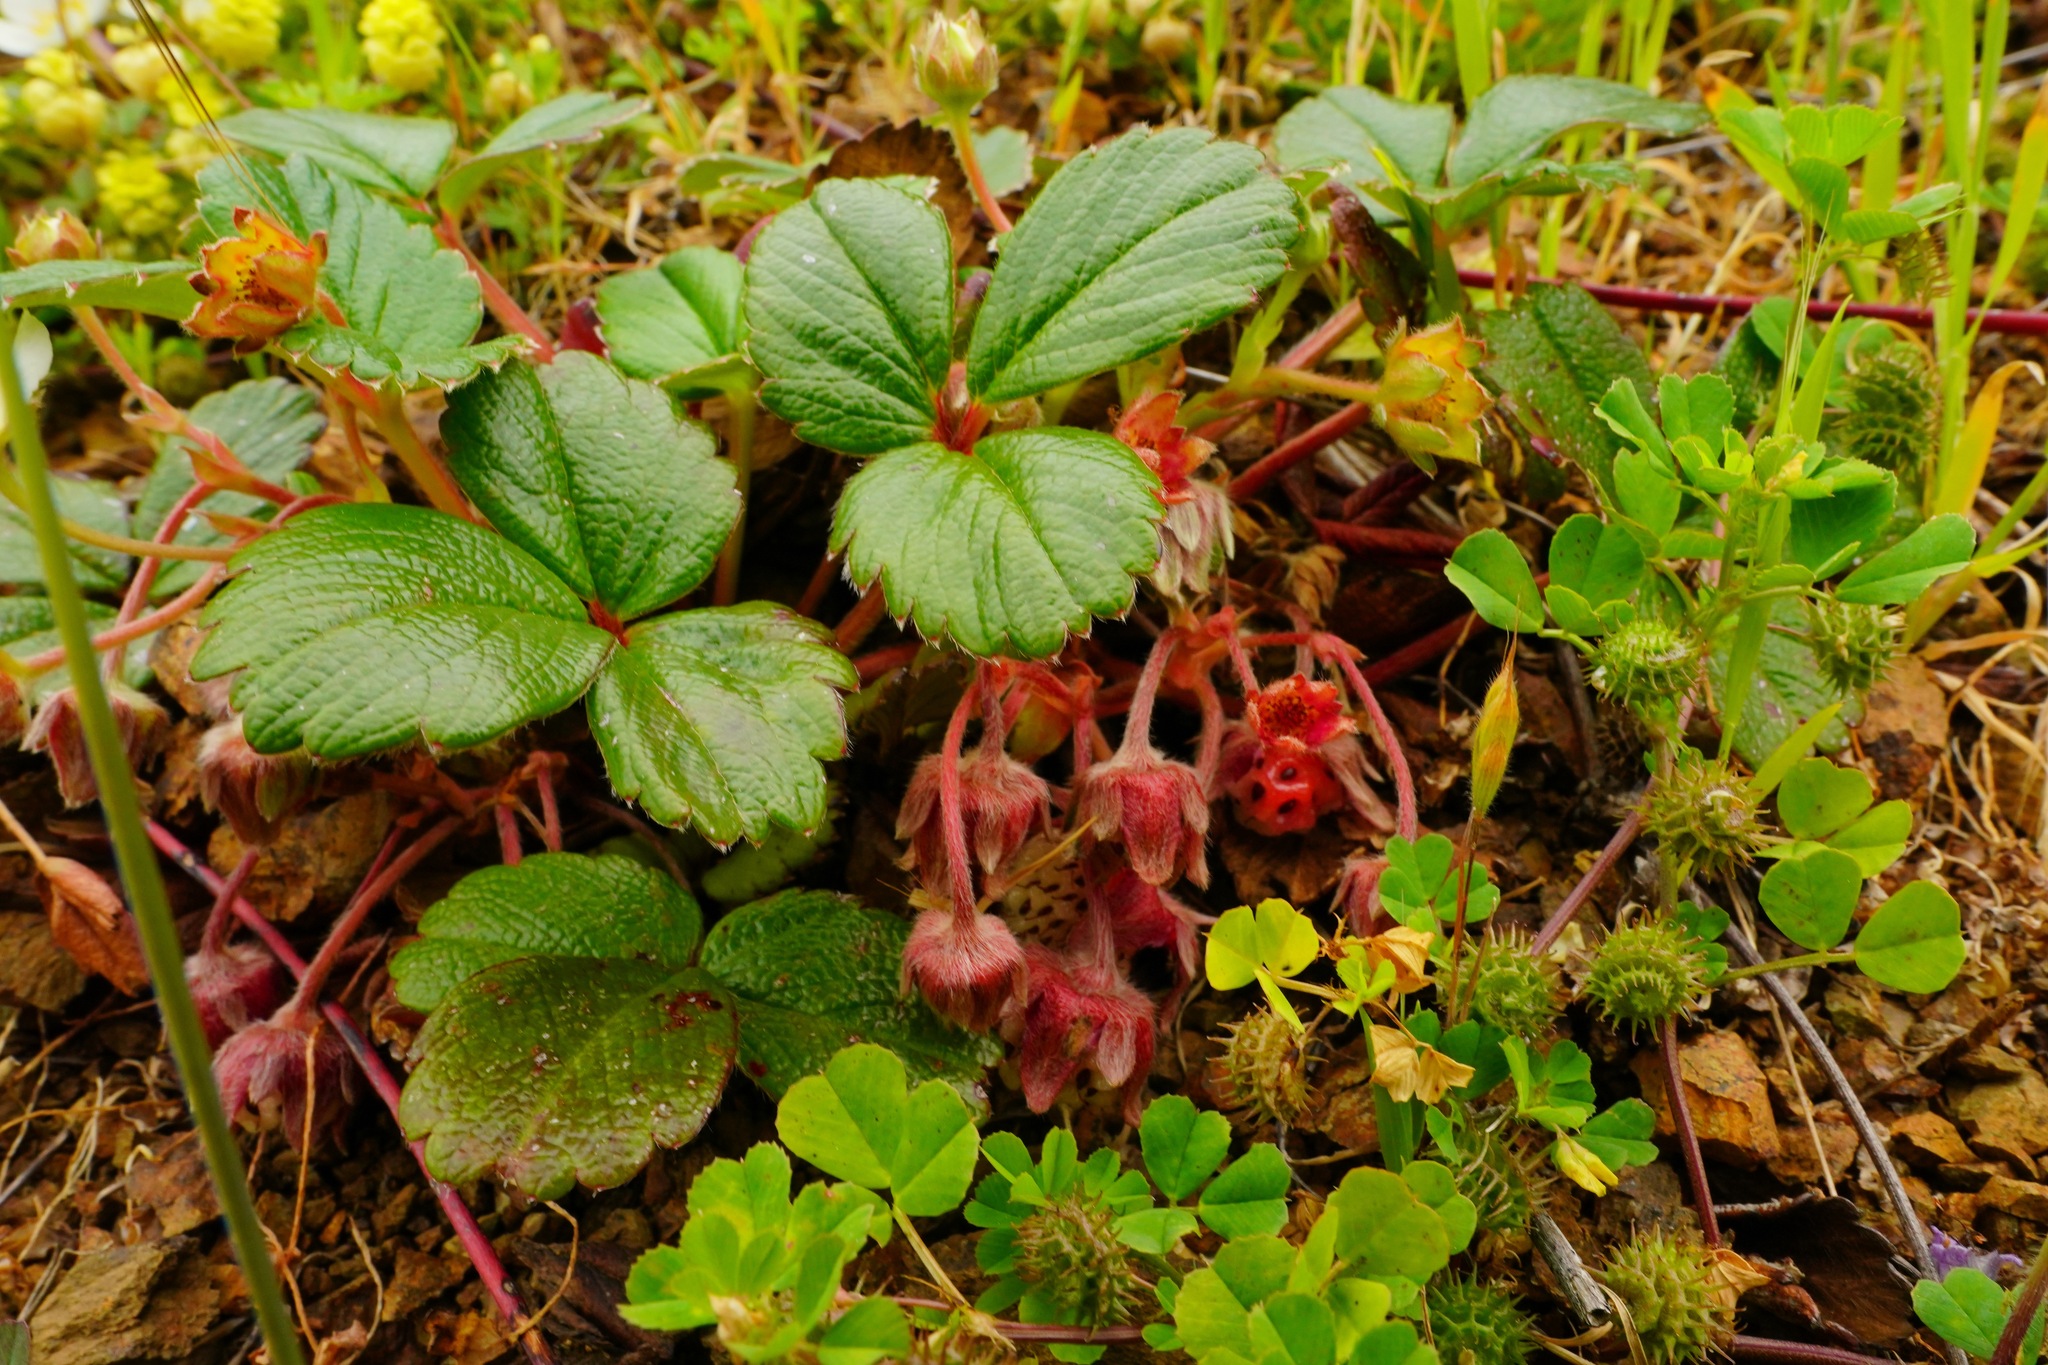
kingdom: Plantae
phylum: Tracheophyta
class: Magnoliopsida
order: Rosales
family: Rosaceae
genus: Fragaria
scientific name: Fragaria chiloensis
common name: Beach strawberry
